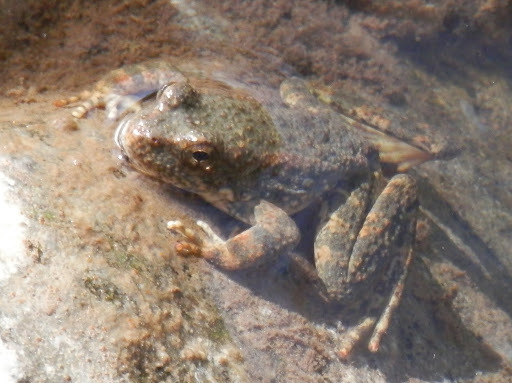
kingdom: Animalia
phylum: Chordata
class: Amphibia
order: Anura
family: Ranidae
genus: Rana
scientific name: Rana boylii
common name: Foothill yellow-legged frog
